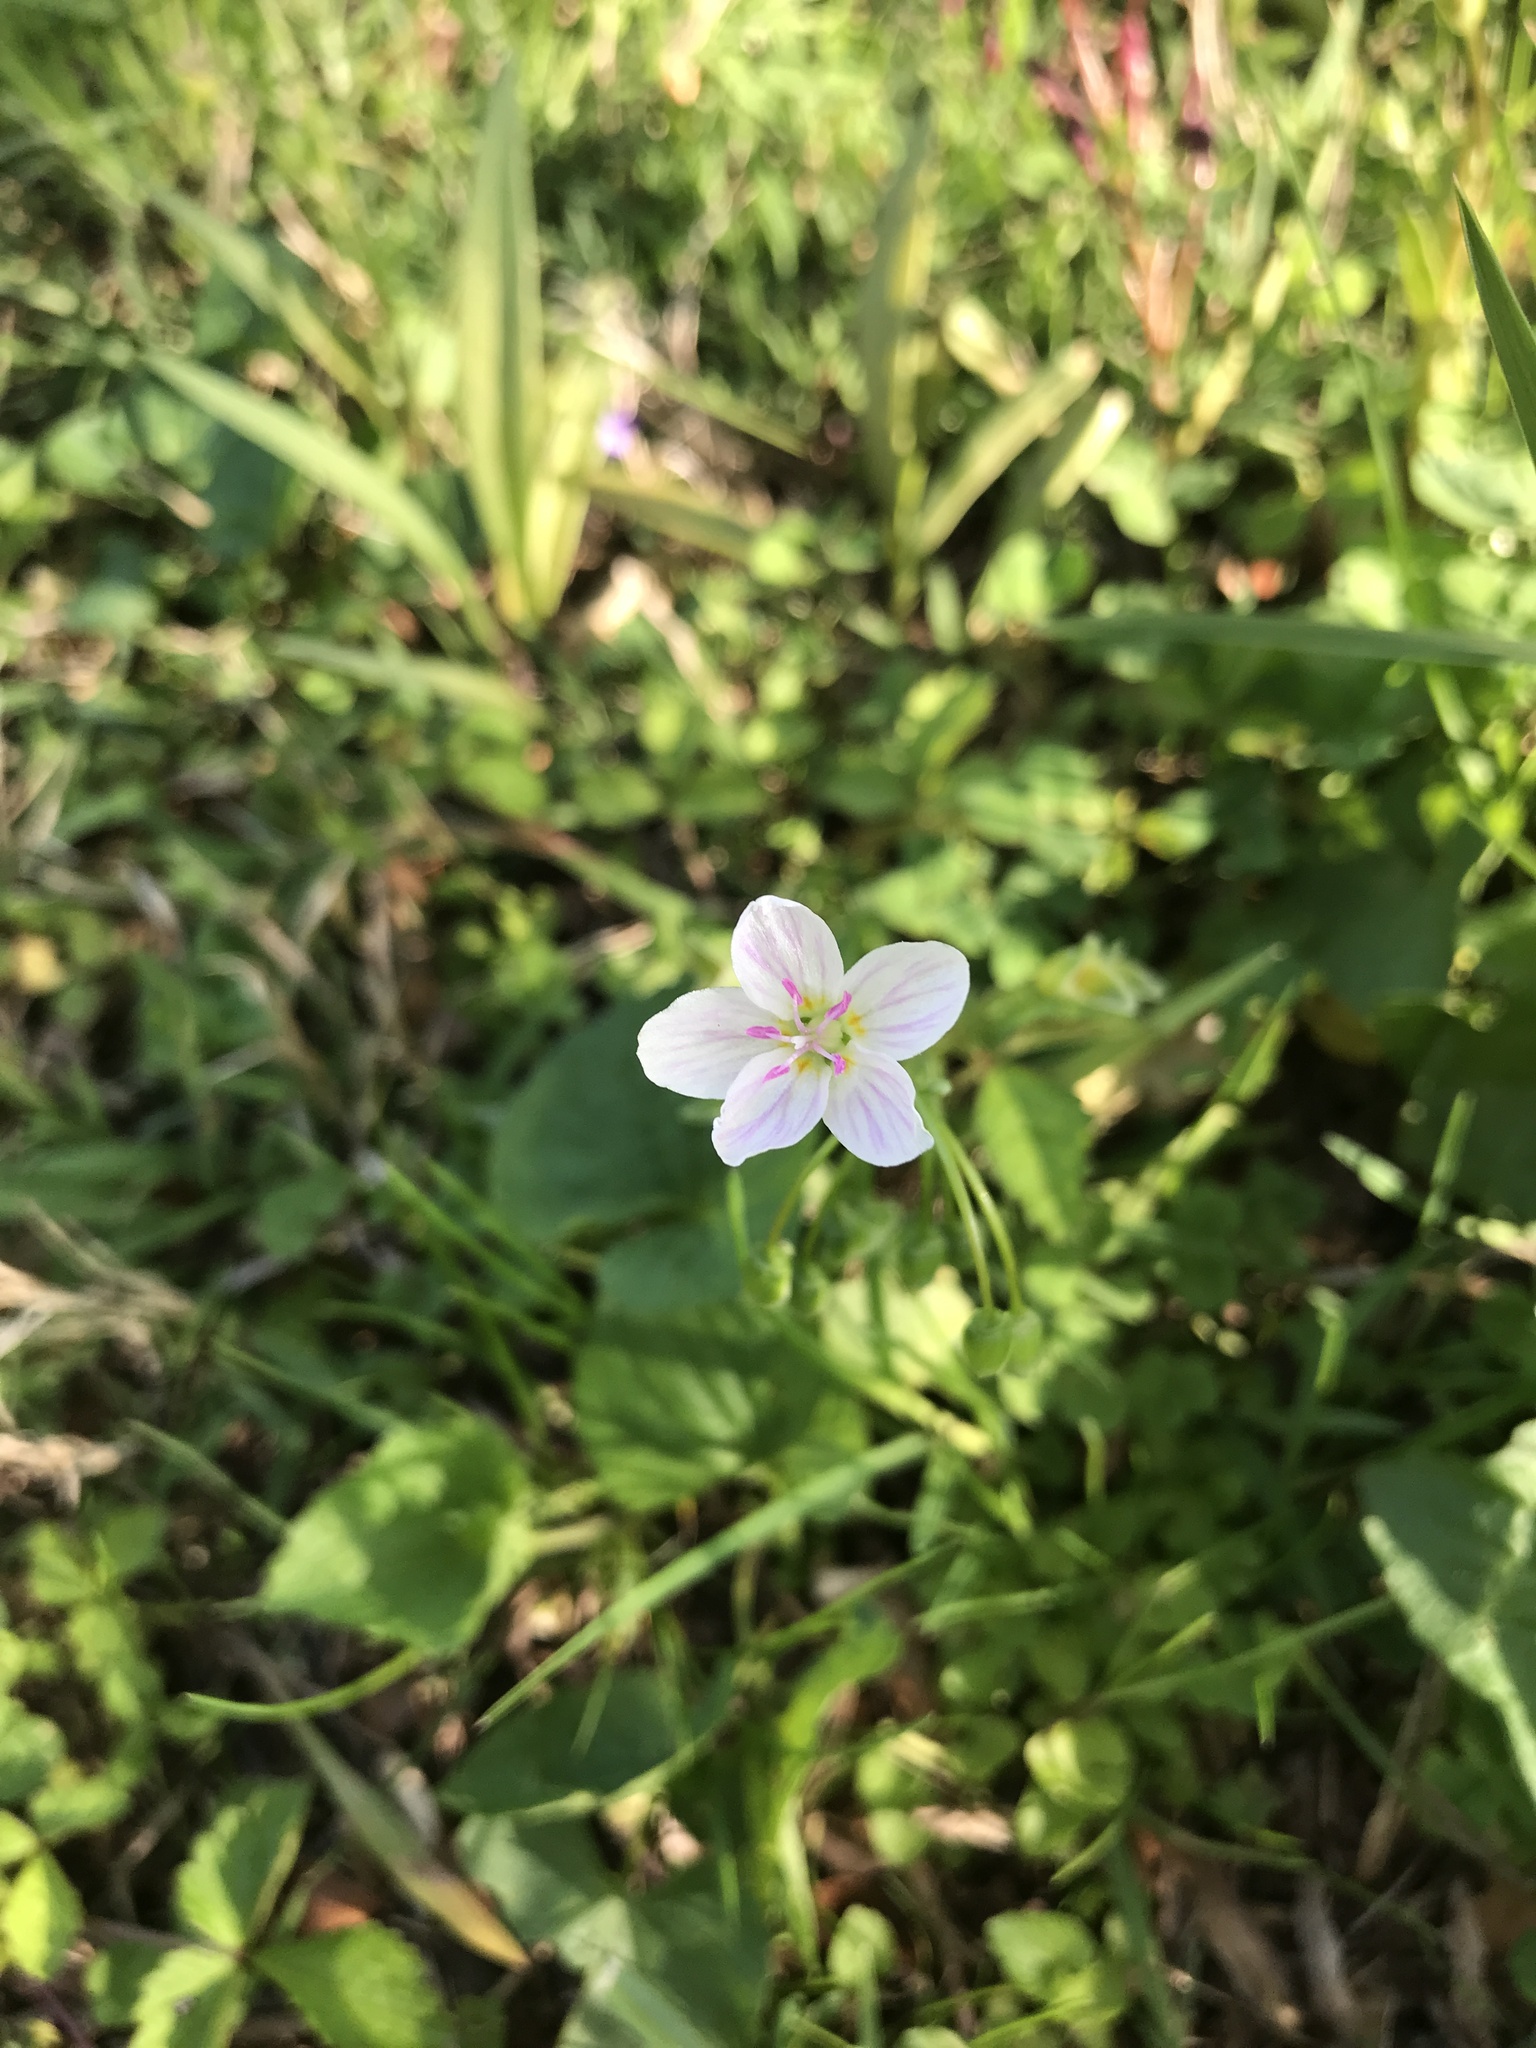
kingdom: Plantae
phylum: Tracheophyta
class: Magnoliopsida
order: Caryophyllales
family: Montiaceae
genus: Claytonia
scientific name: Claytonia virginica
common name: Virginia springbeauty
